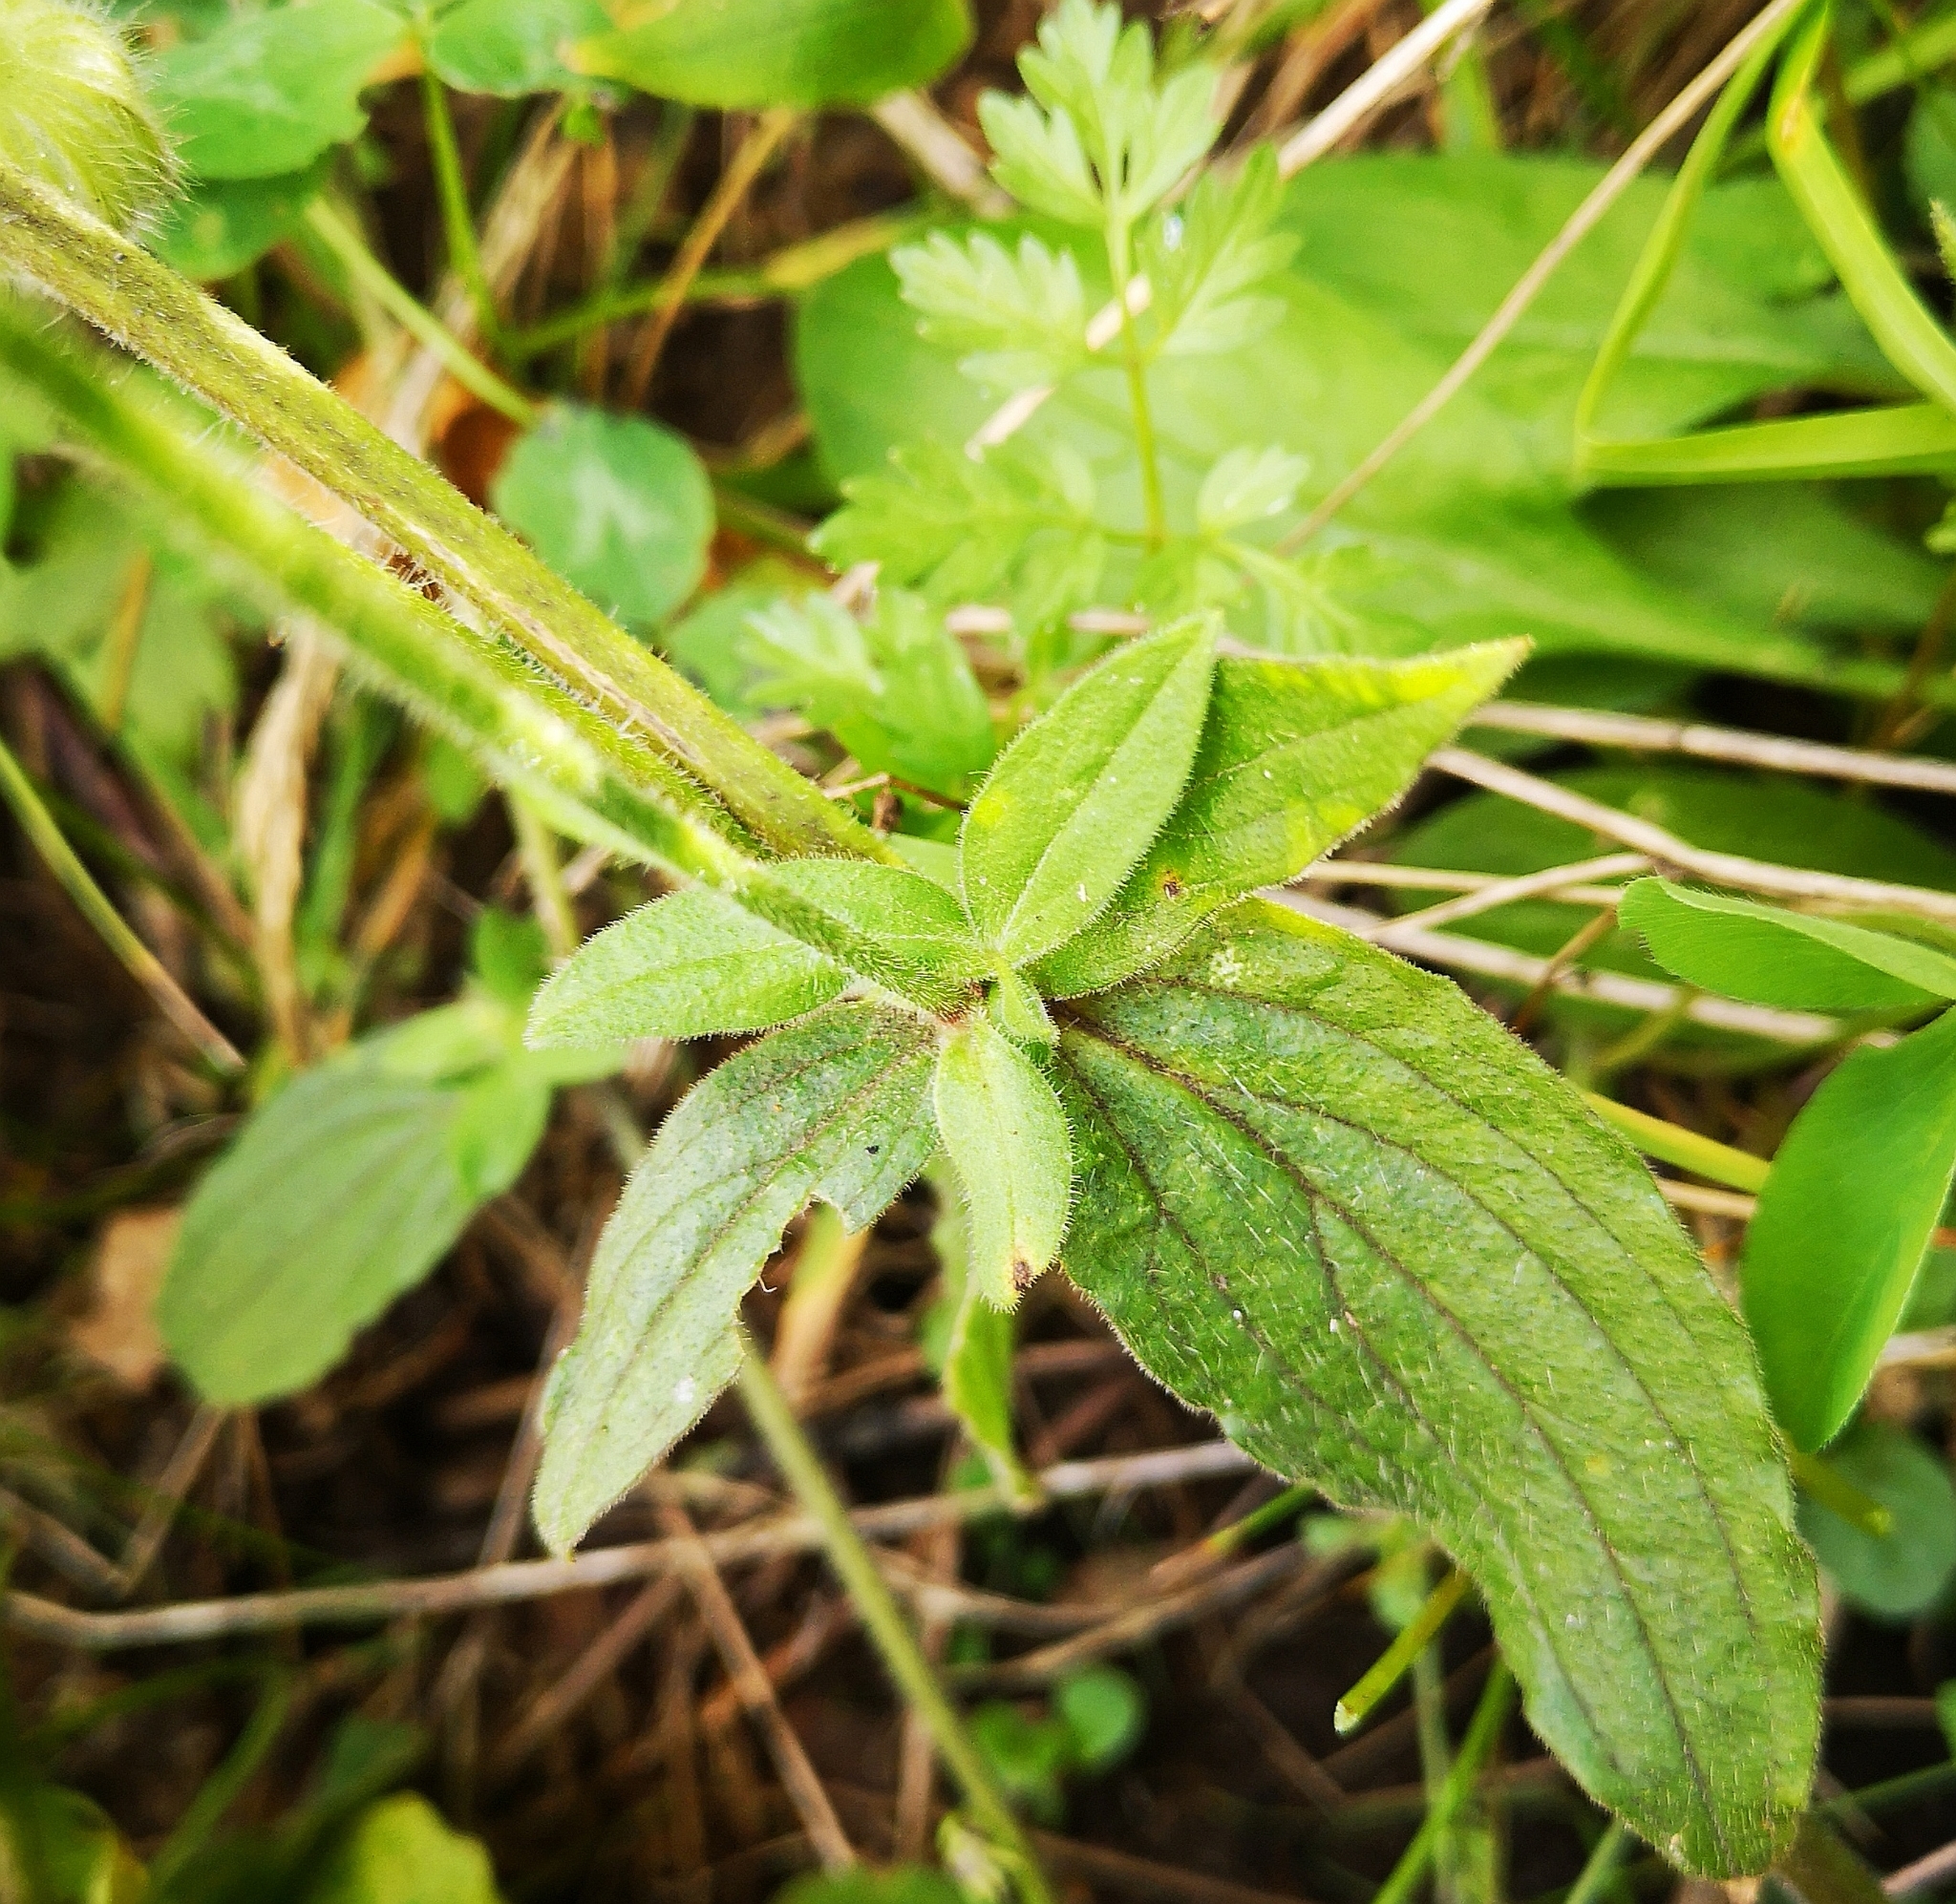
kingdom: Plantae
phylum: Tracheophyta
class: Magnoliopsida
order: Caryophyllales
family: Caryophyllaceae
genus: Silene
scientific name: Silene latifolia
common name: White campion
